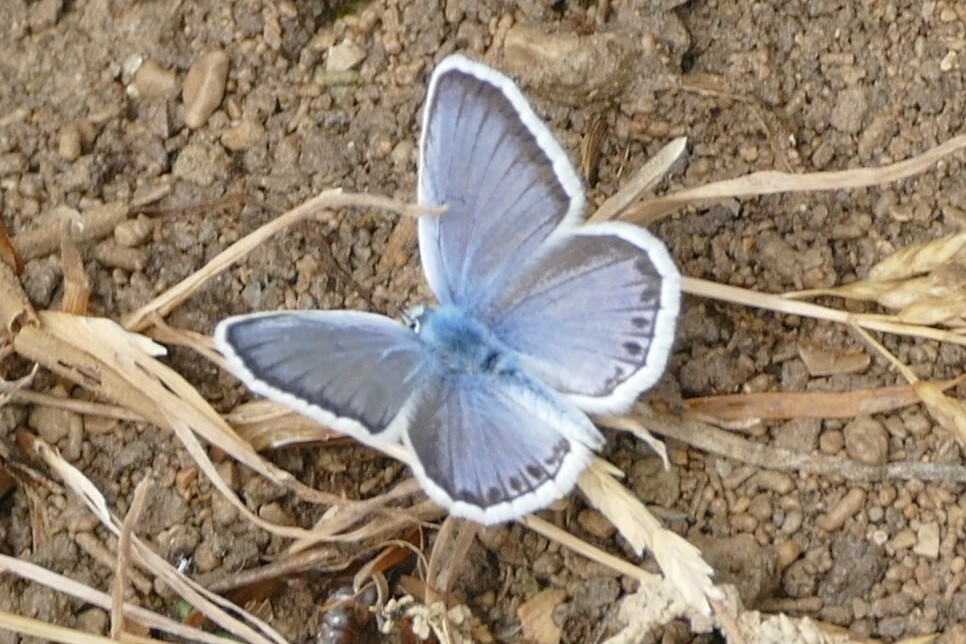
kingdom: Animalia
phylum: Arthropoda
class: Insecta
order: Lepidoptera
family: Lycaenidae
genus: Plebejus
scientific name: Plebejus argus
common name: Silver-studded blue
